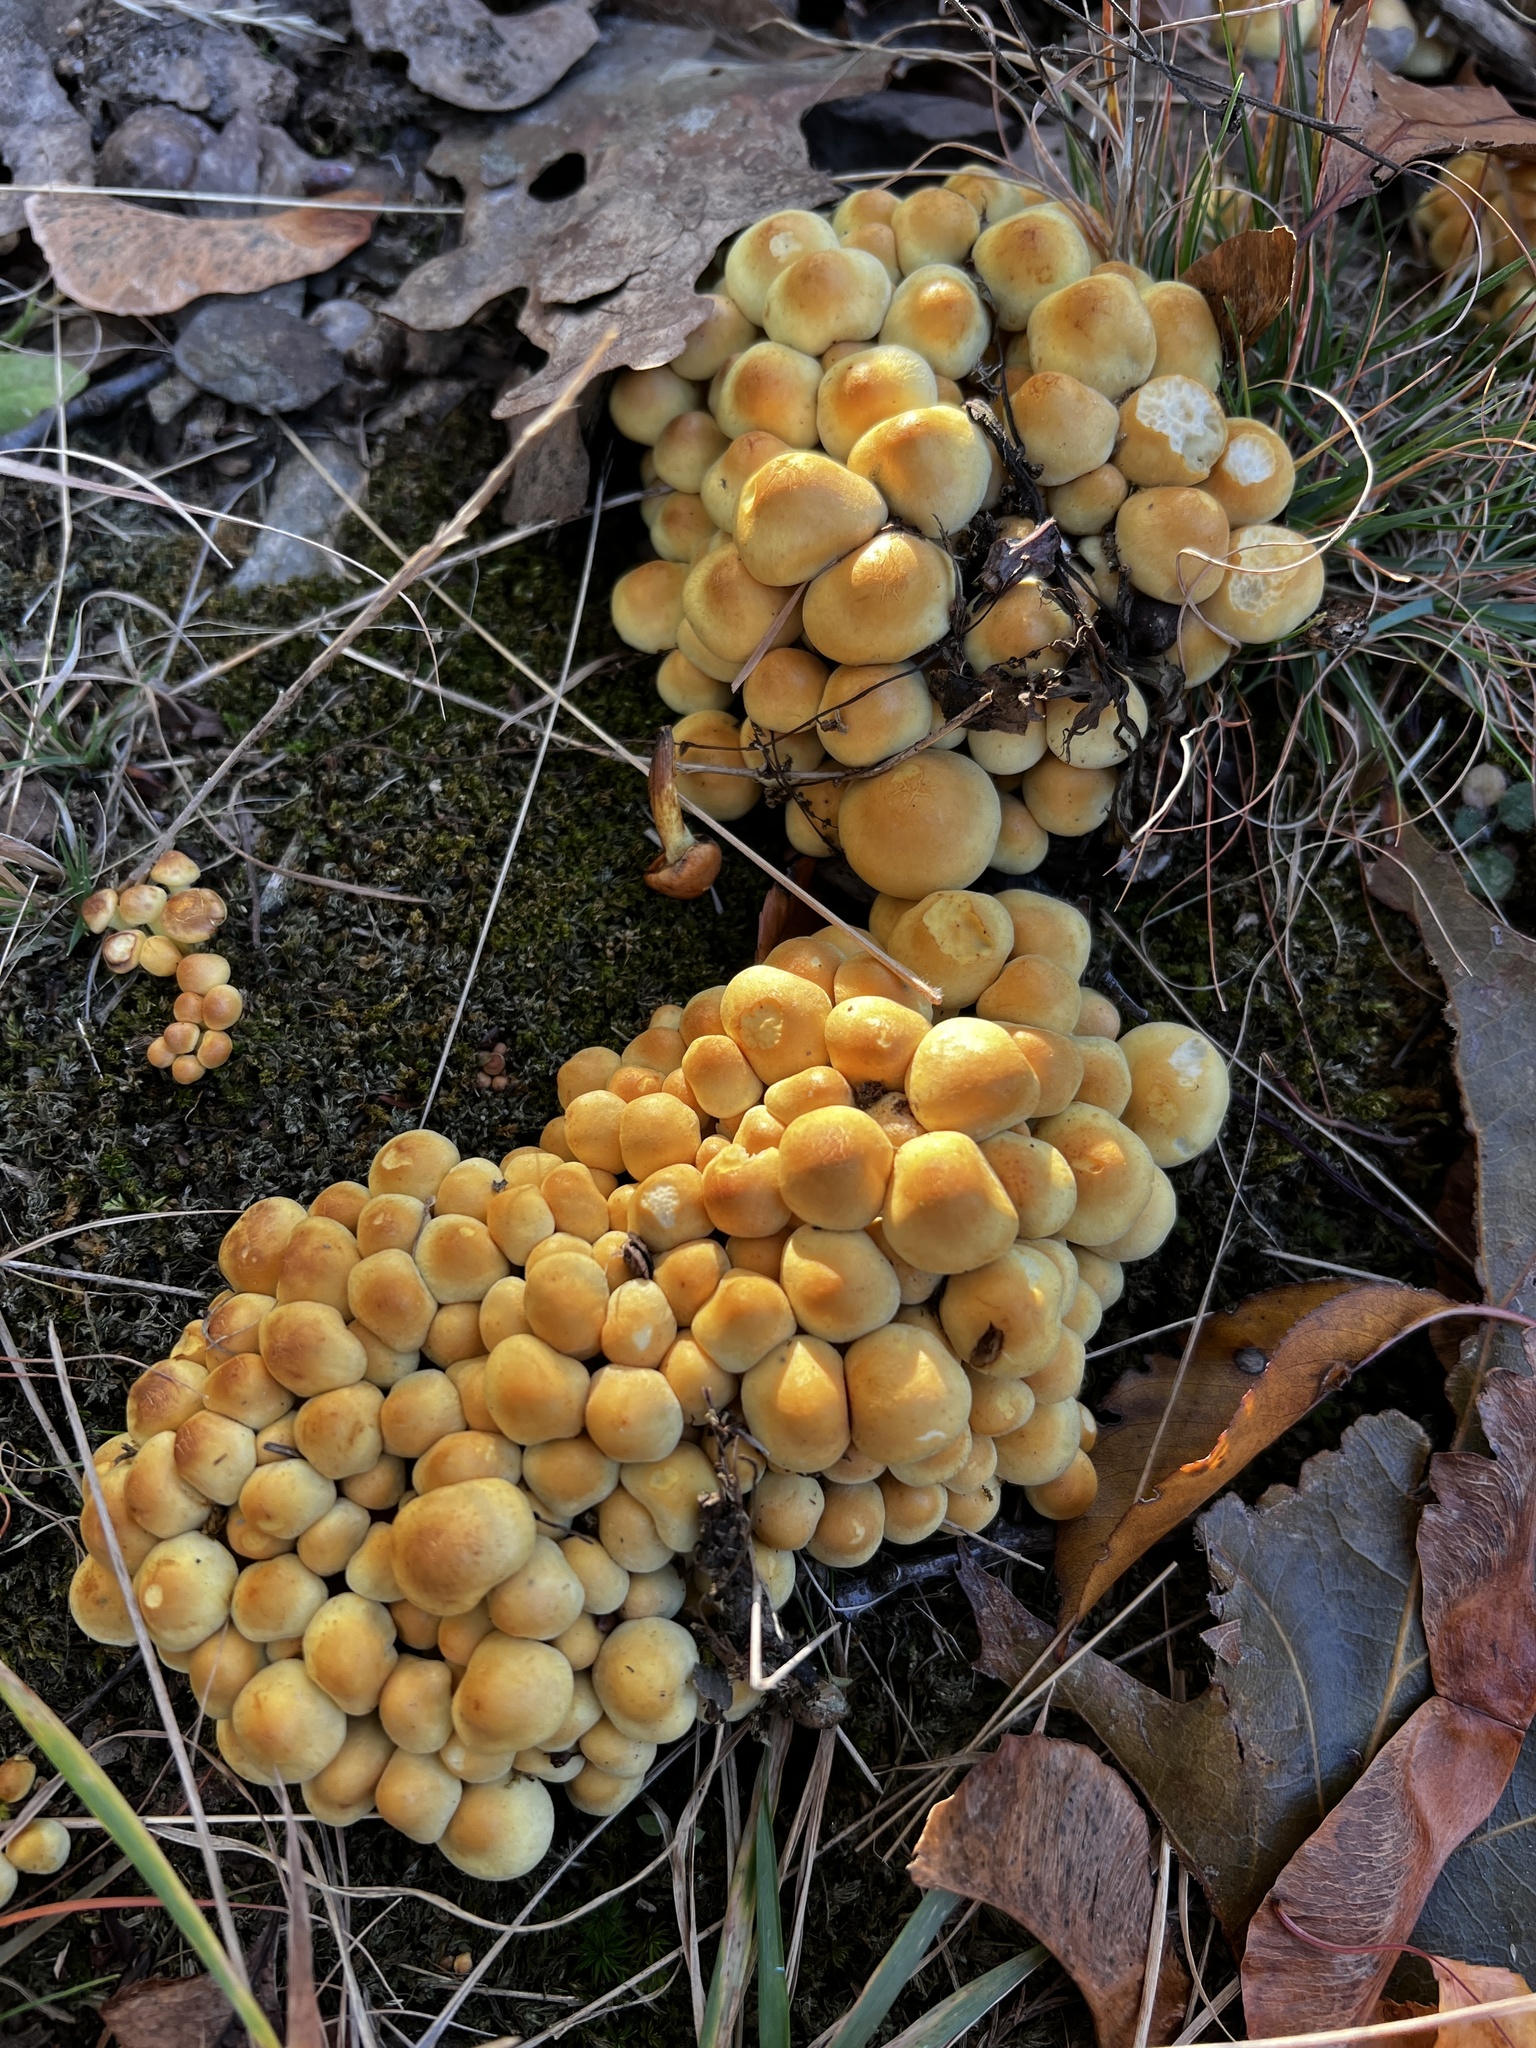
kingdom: Fungi
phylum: Basidiomycota
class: Agaricomycetes
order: Agaricales
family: Strophariaceae
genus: Hypholoma
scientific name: Hypholoma fasciculare
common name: Sulphur tuft
